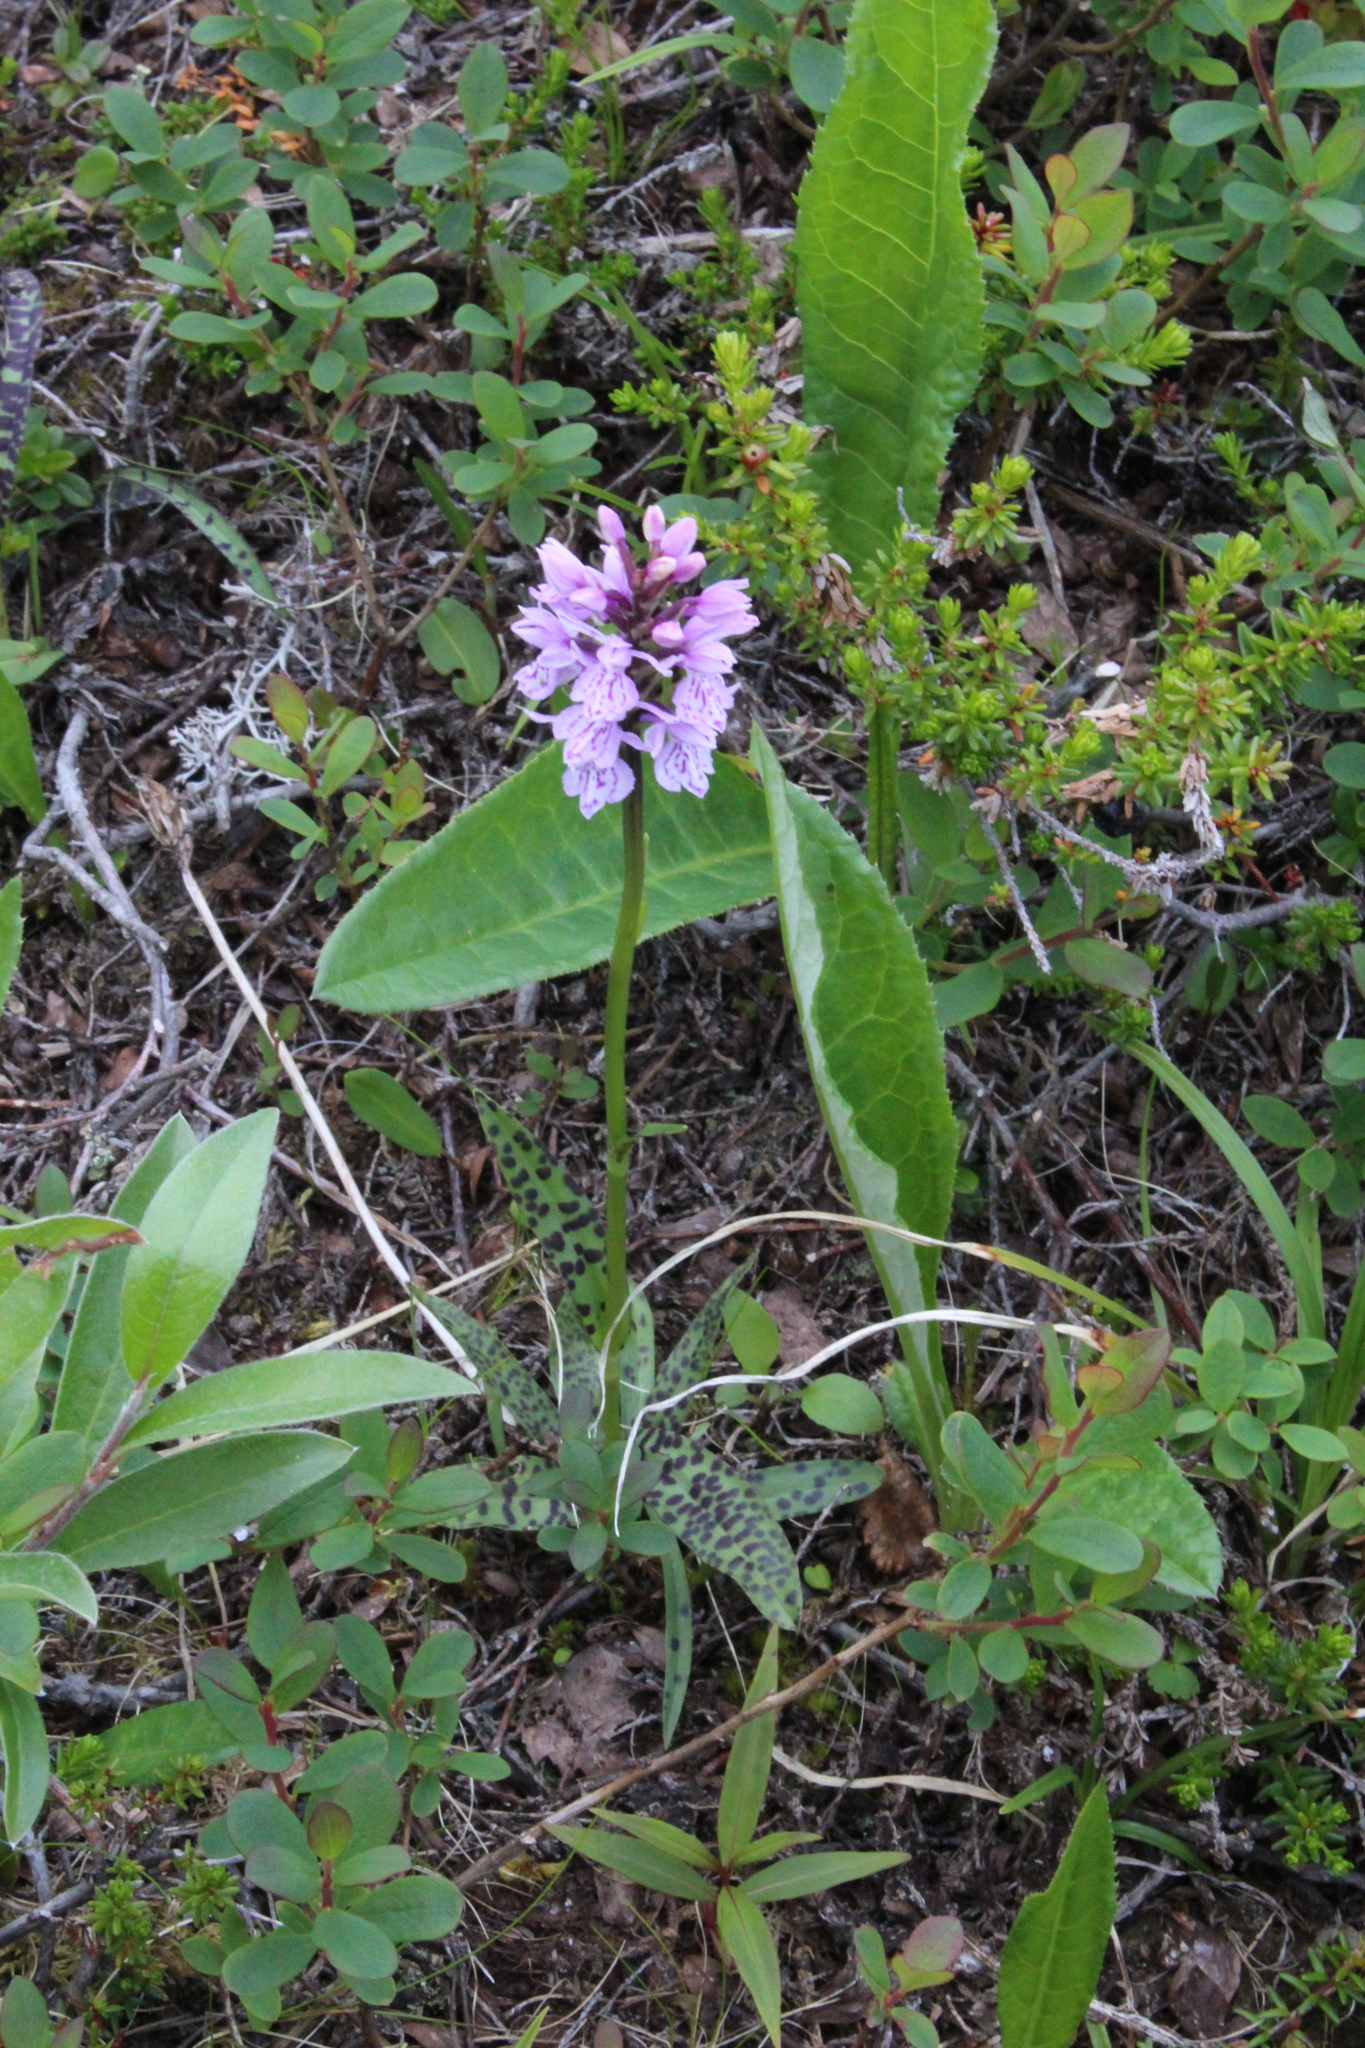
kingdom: Plantae
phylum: Tracheophyta
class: Liliopsida
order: Asparagales
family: Orchidaceae
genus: Dactylorhiza
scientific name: Dactylorhiza maculata
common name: Heath spotted-orchid
